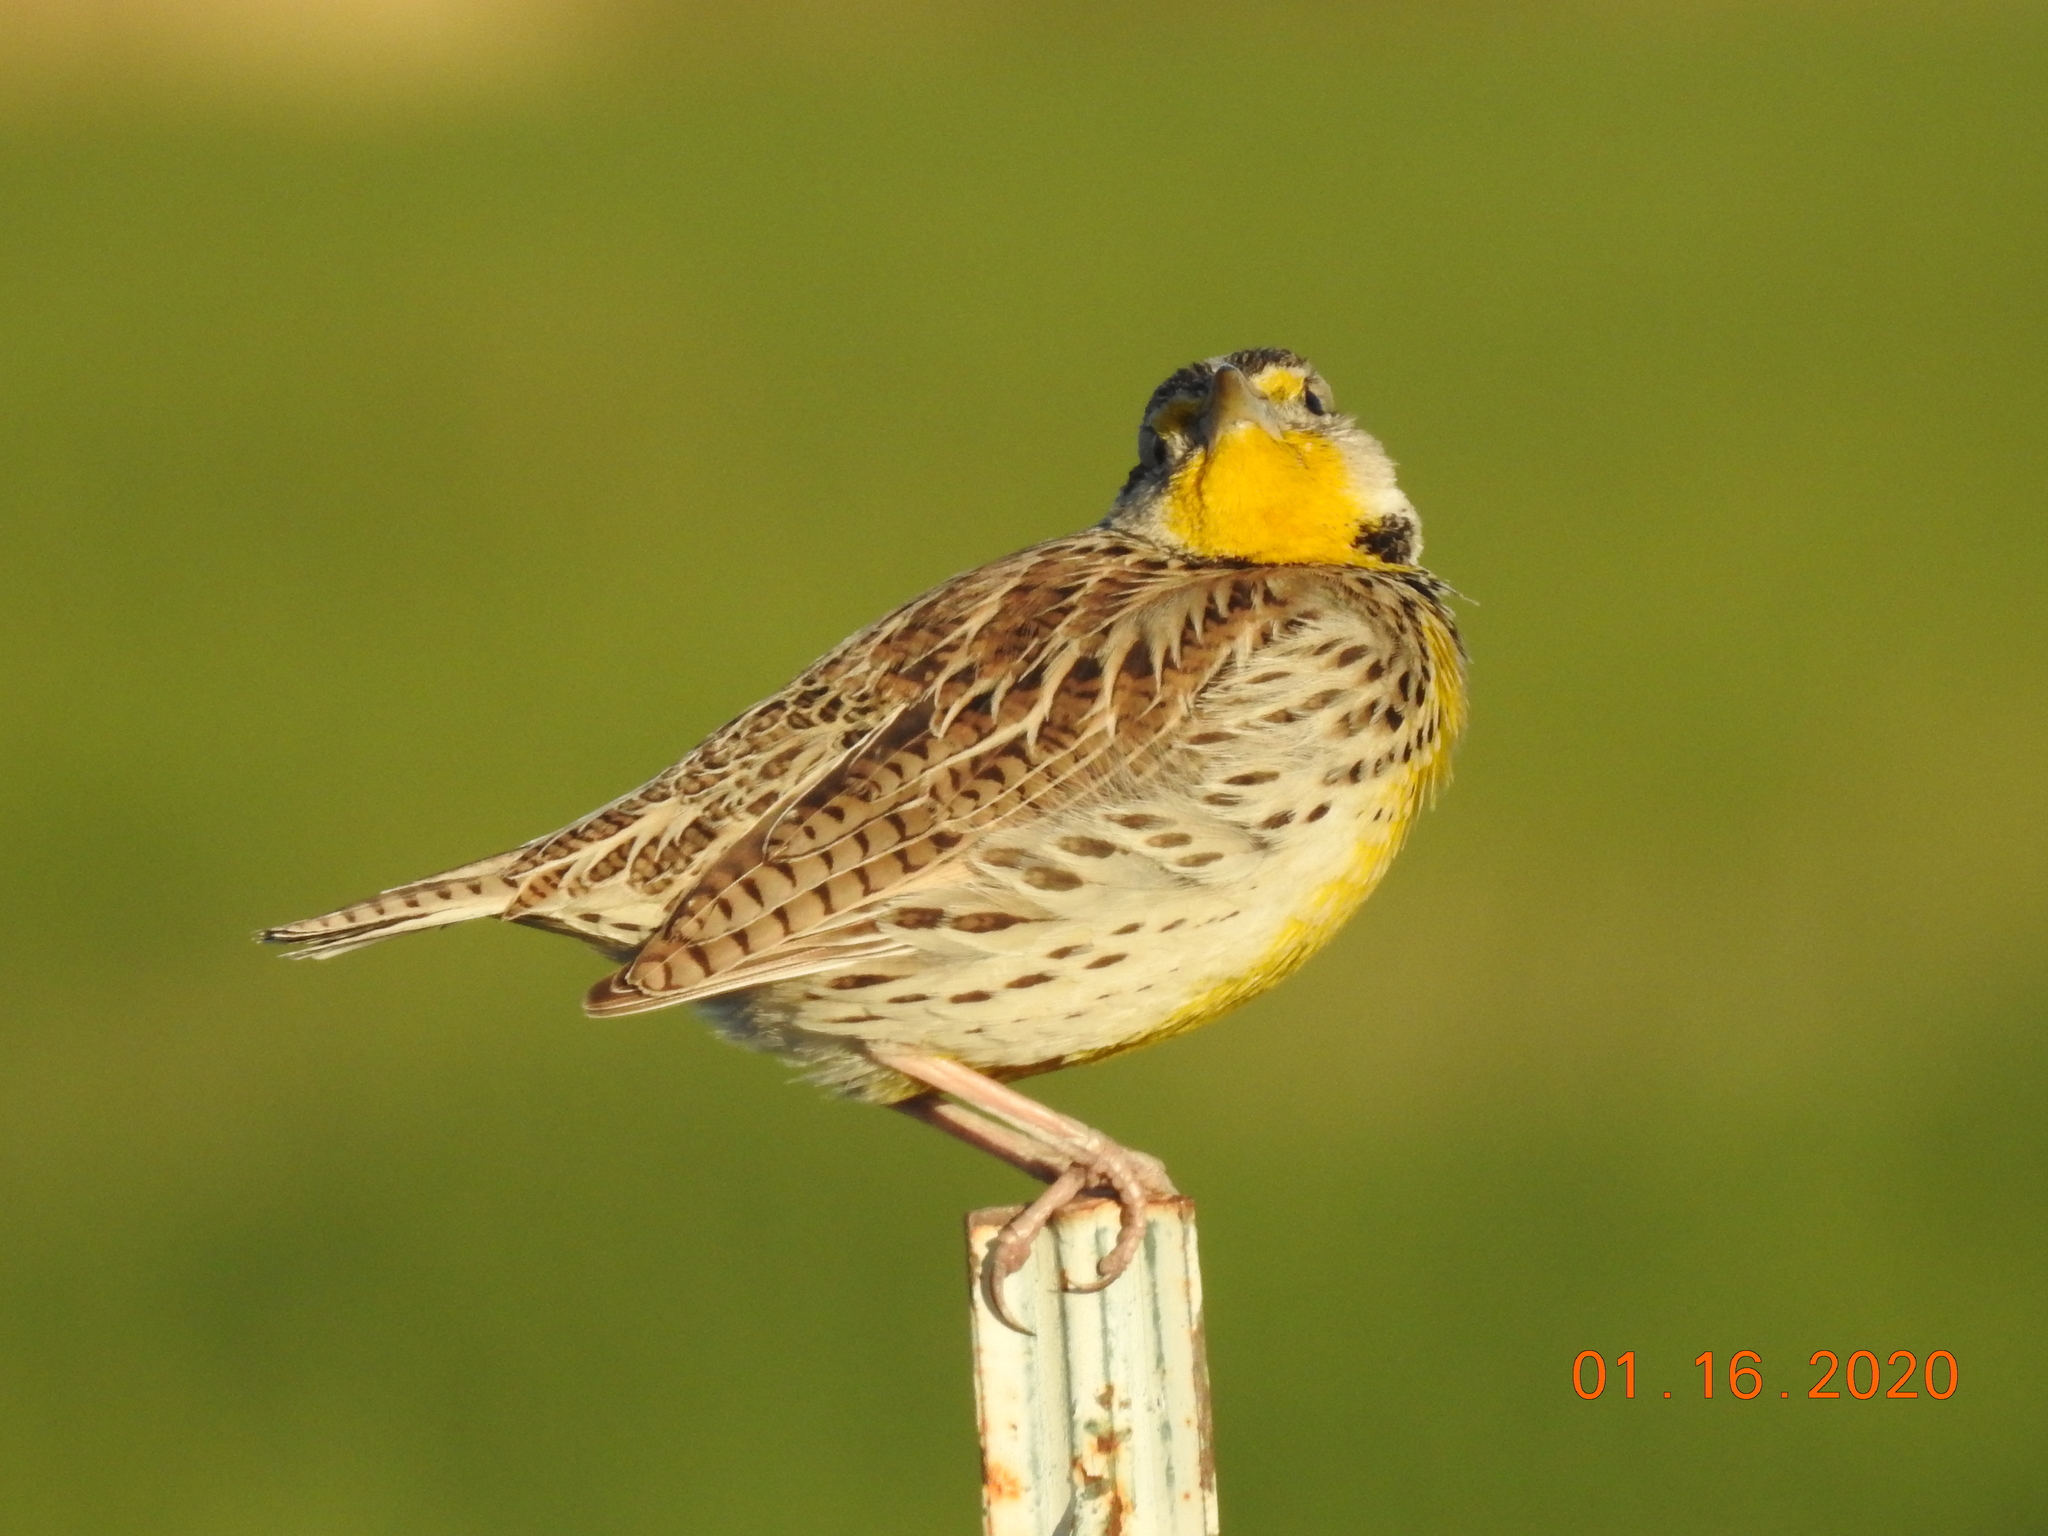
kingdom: Animalia
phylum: Chordata
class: Aves
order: Passeriformes
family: Icteridae
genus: Sturnella
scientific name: Sturnella neglecta
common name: Western meadowlark
